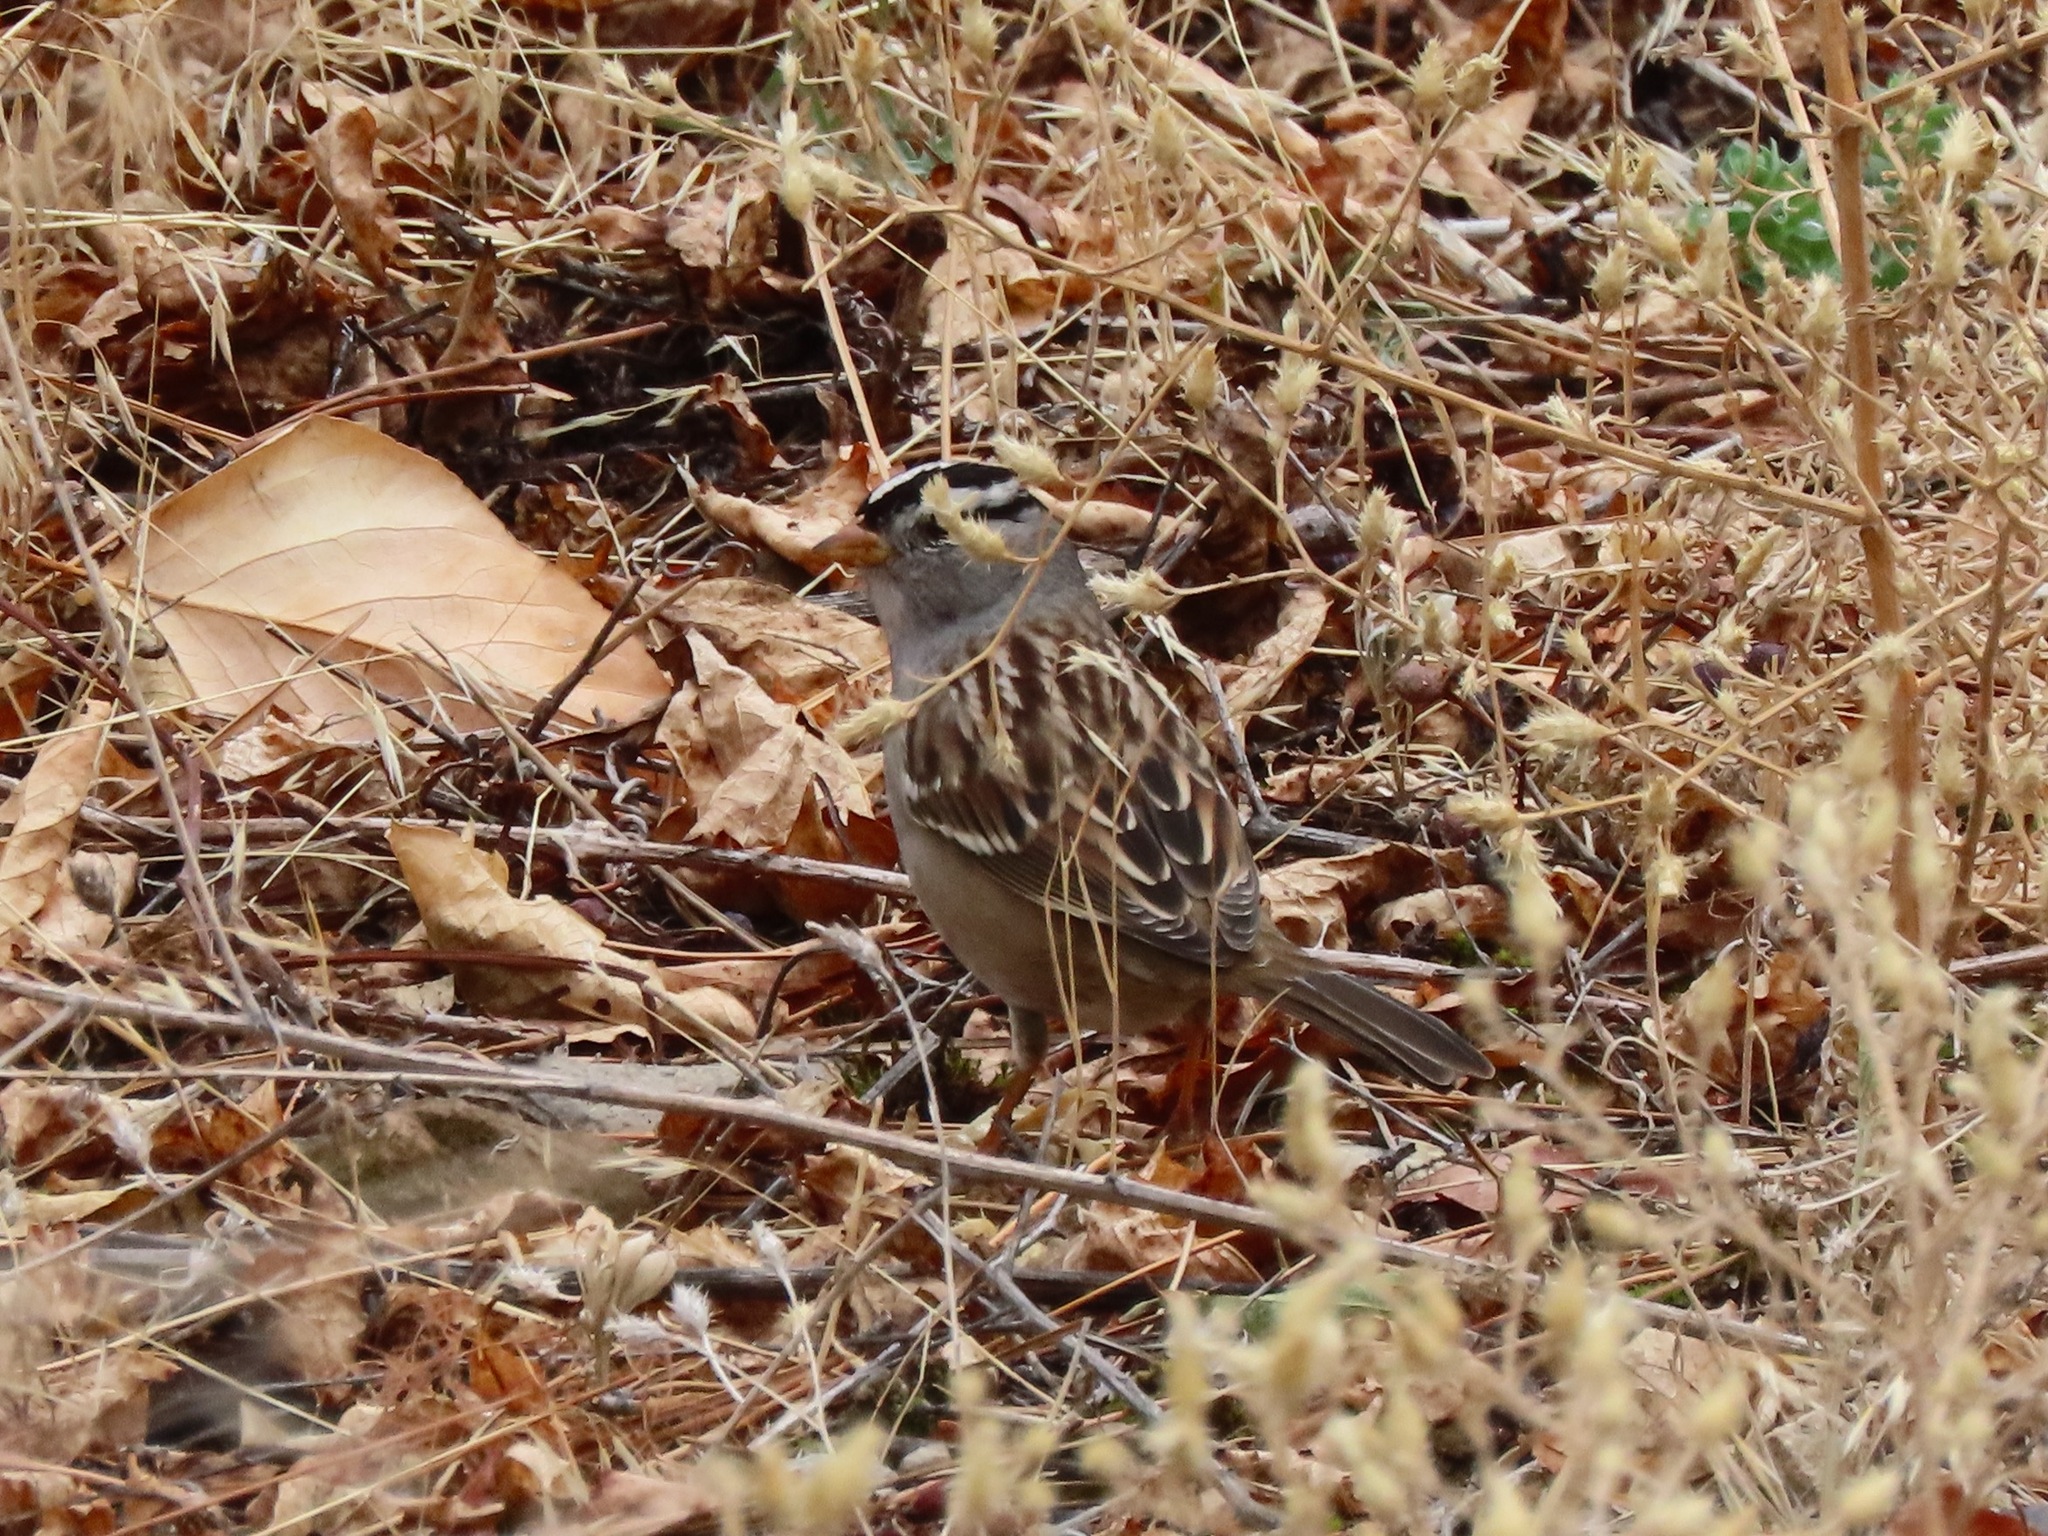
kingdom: Animalia
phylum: Chordata
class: Aves
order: Passeriformes
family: Passerellidae
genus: Zonotrichia
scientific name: Zonotrichia leucophrys
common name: White-crowned sparrow
